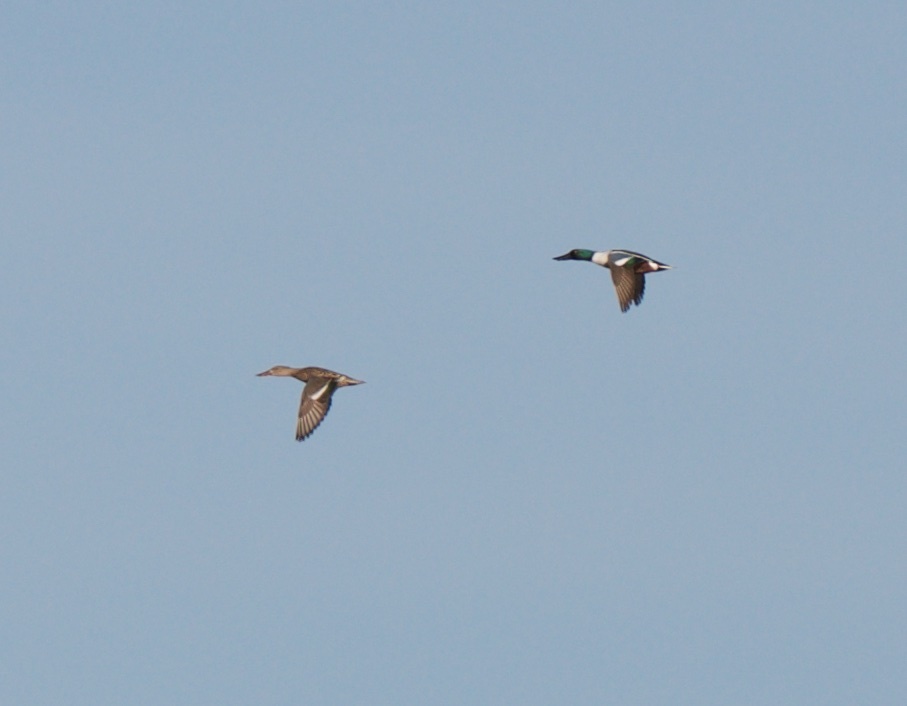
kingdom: Animalia
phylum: Chordata
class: Aves
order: Anseriformes
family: Anatidae
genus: Spatula
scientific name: Spatula clypeata
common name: Northern shoveler
